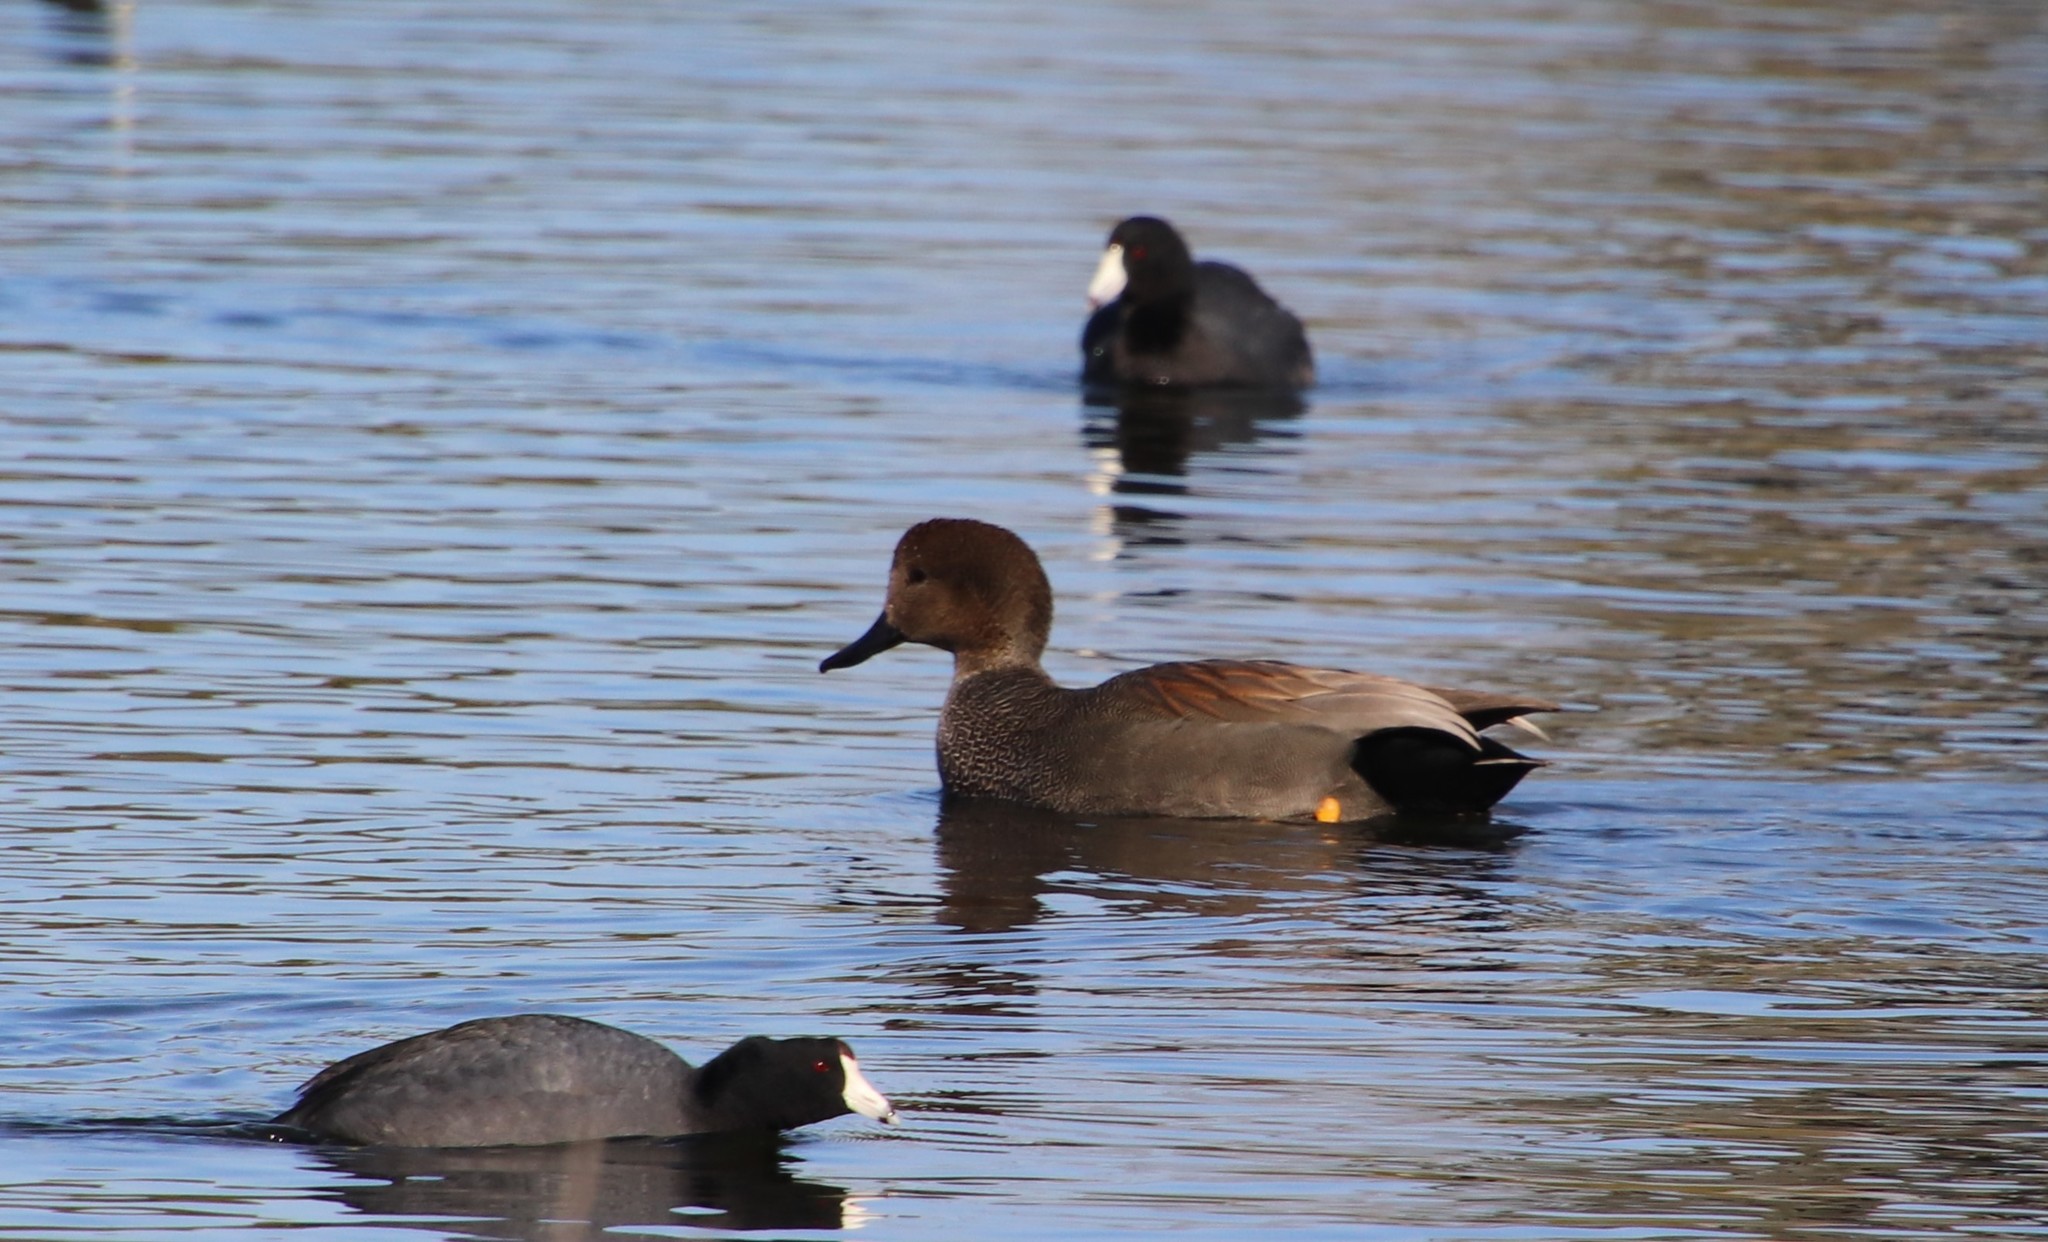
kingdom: Animalia
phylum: Chordata
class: Aves
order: Anseriformes
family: Anatidae
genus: Mareca
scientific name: Mareca strepera
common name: Gadwall
